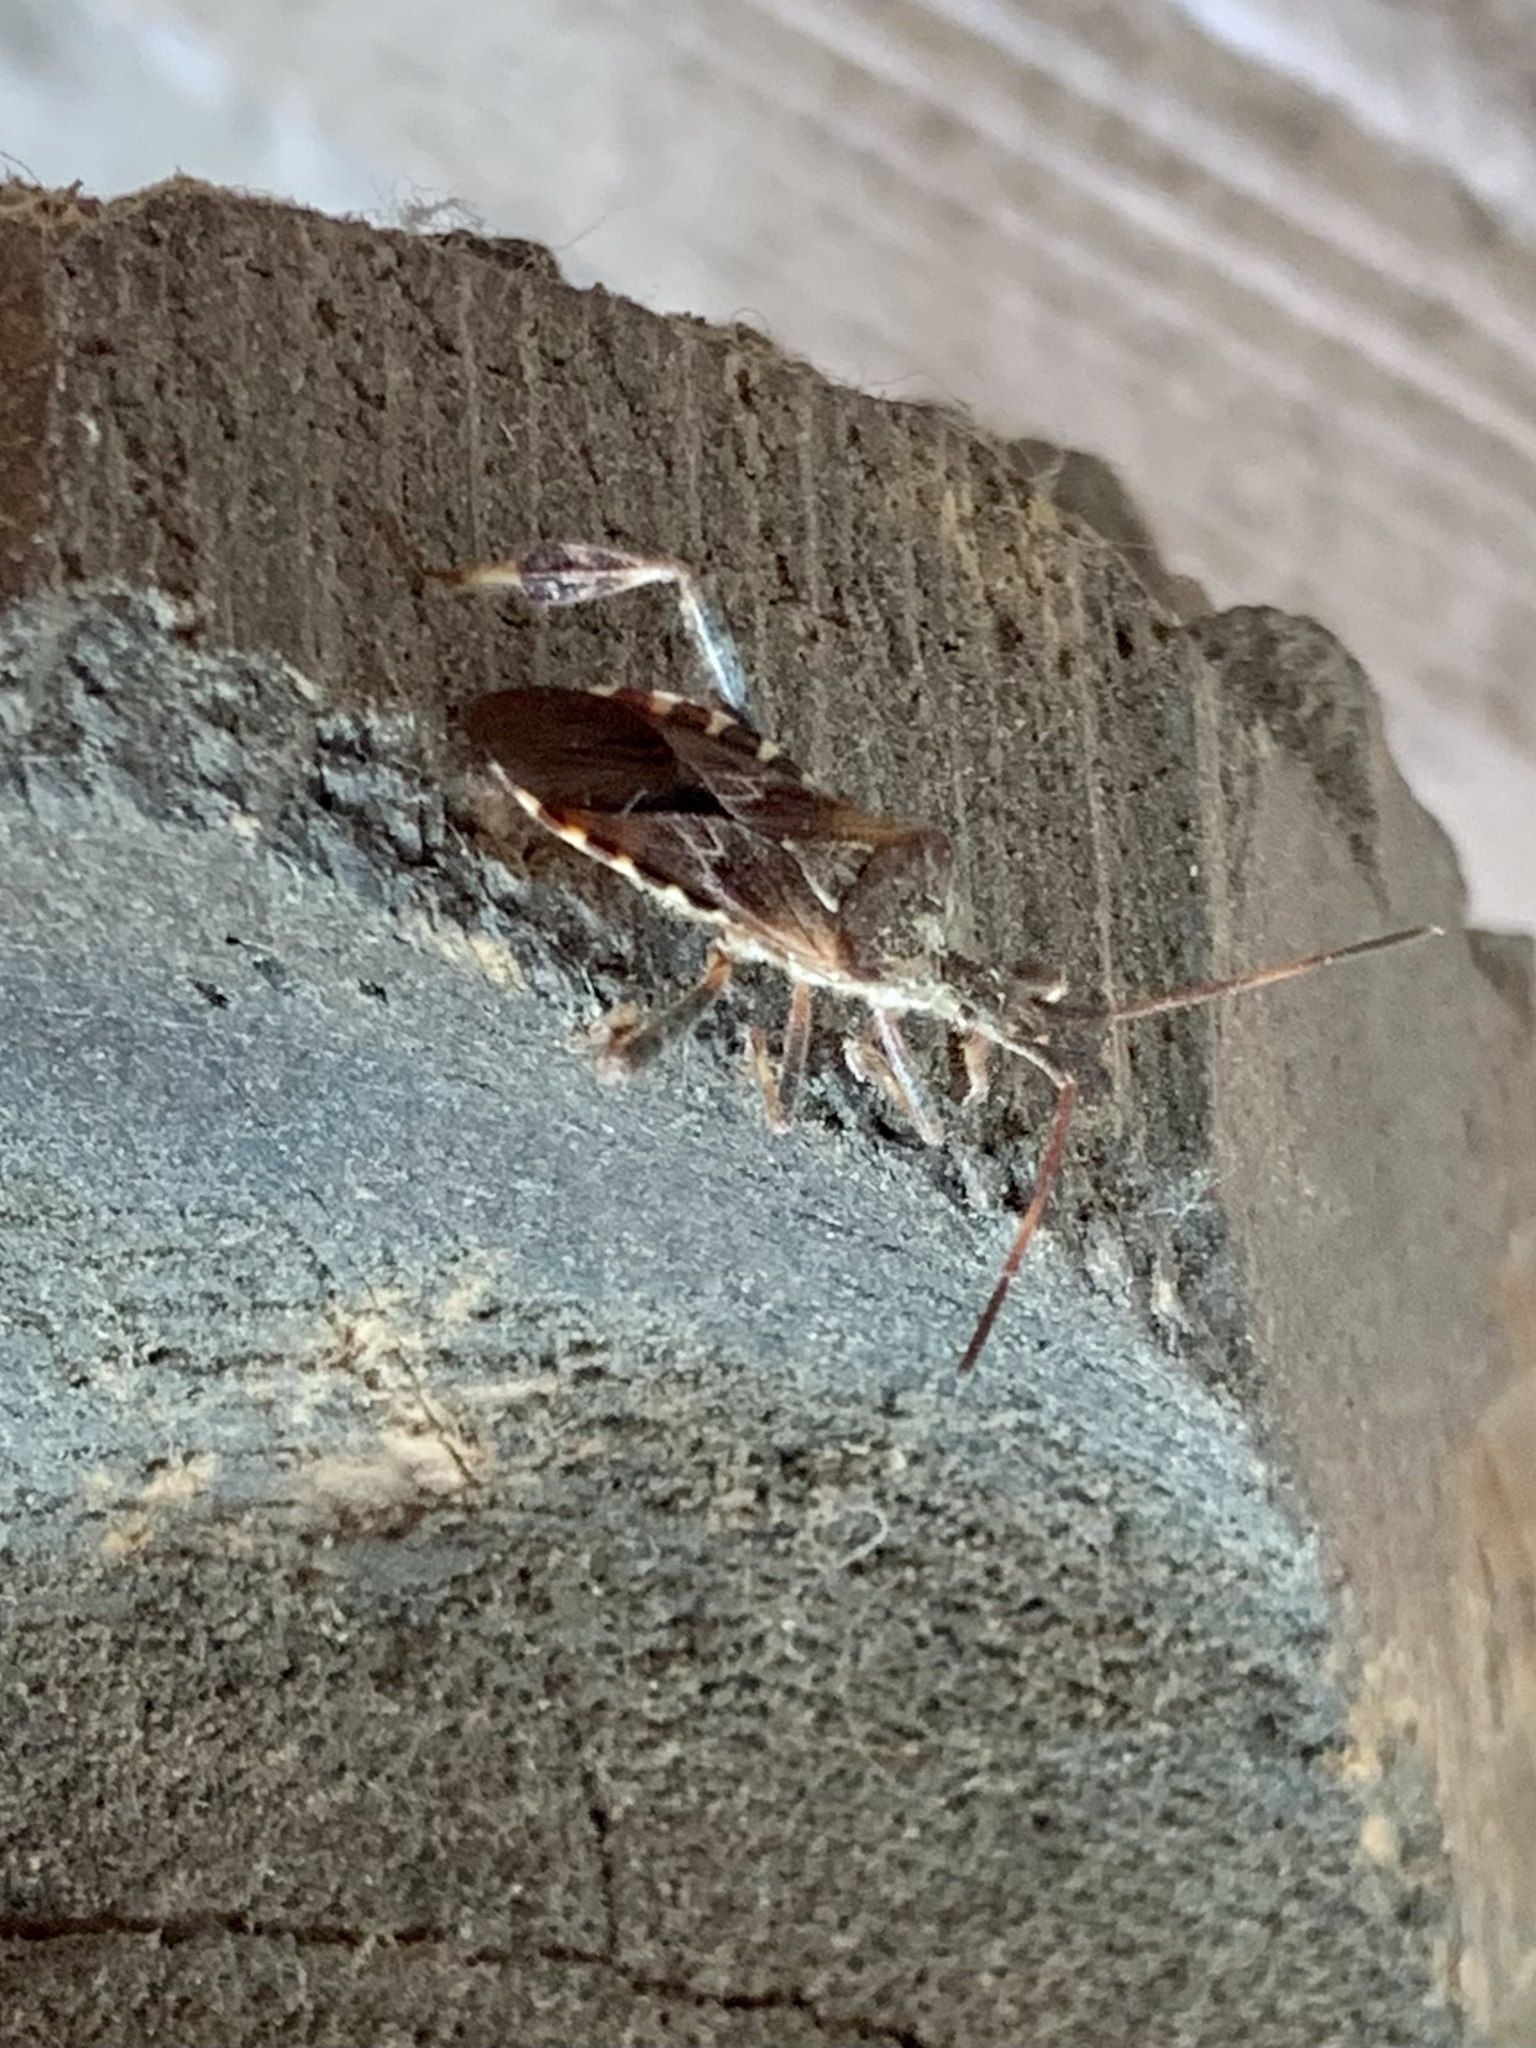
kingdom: Animalia
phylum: Arthropoda
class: Insecta
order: Hemiptera
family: Coreidae
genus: Leptoglossus
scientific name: Leptoglossus occidentalis
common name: Western conifer-seed bug
